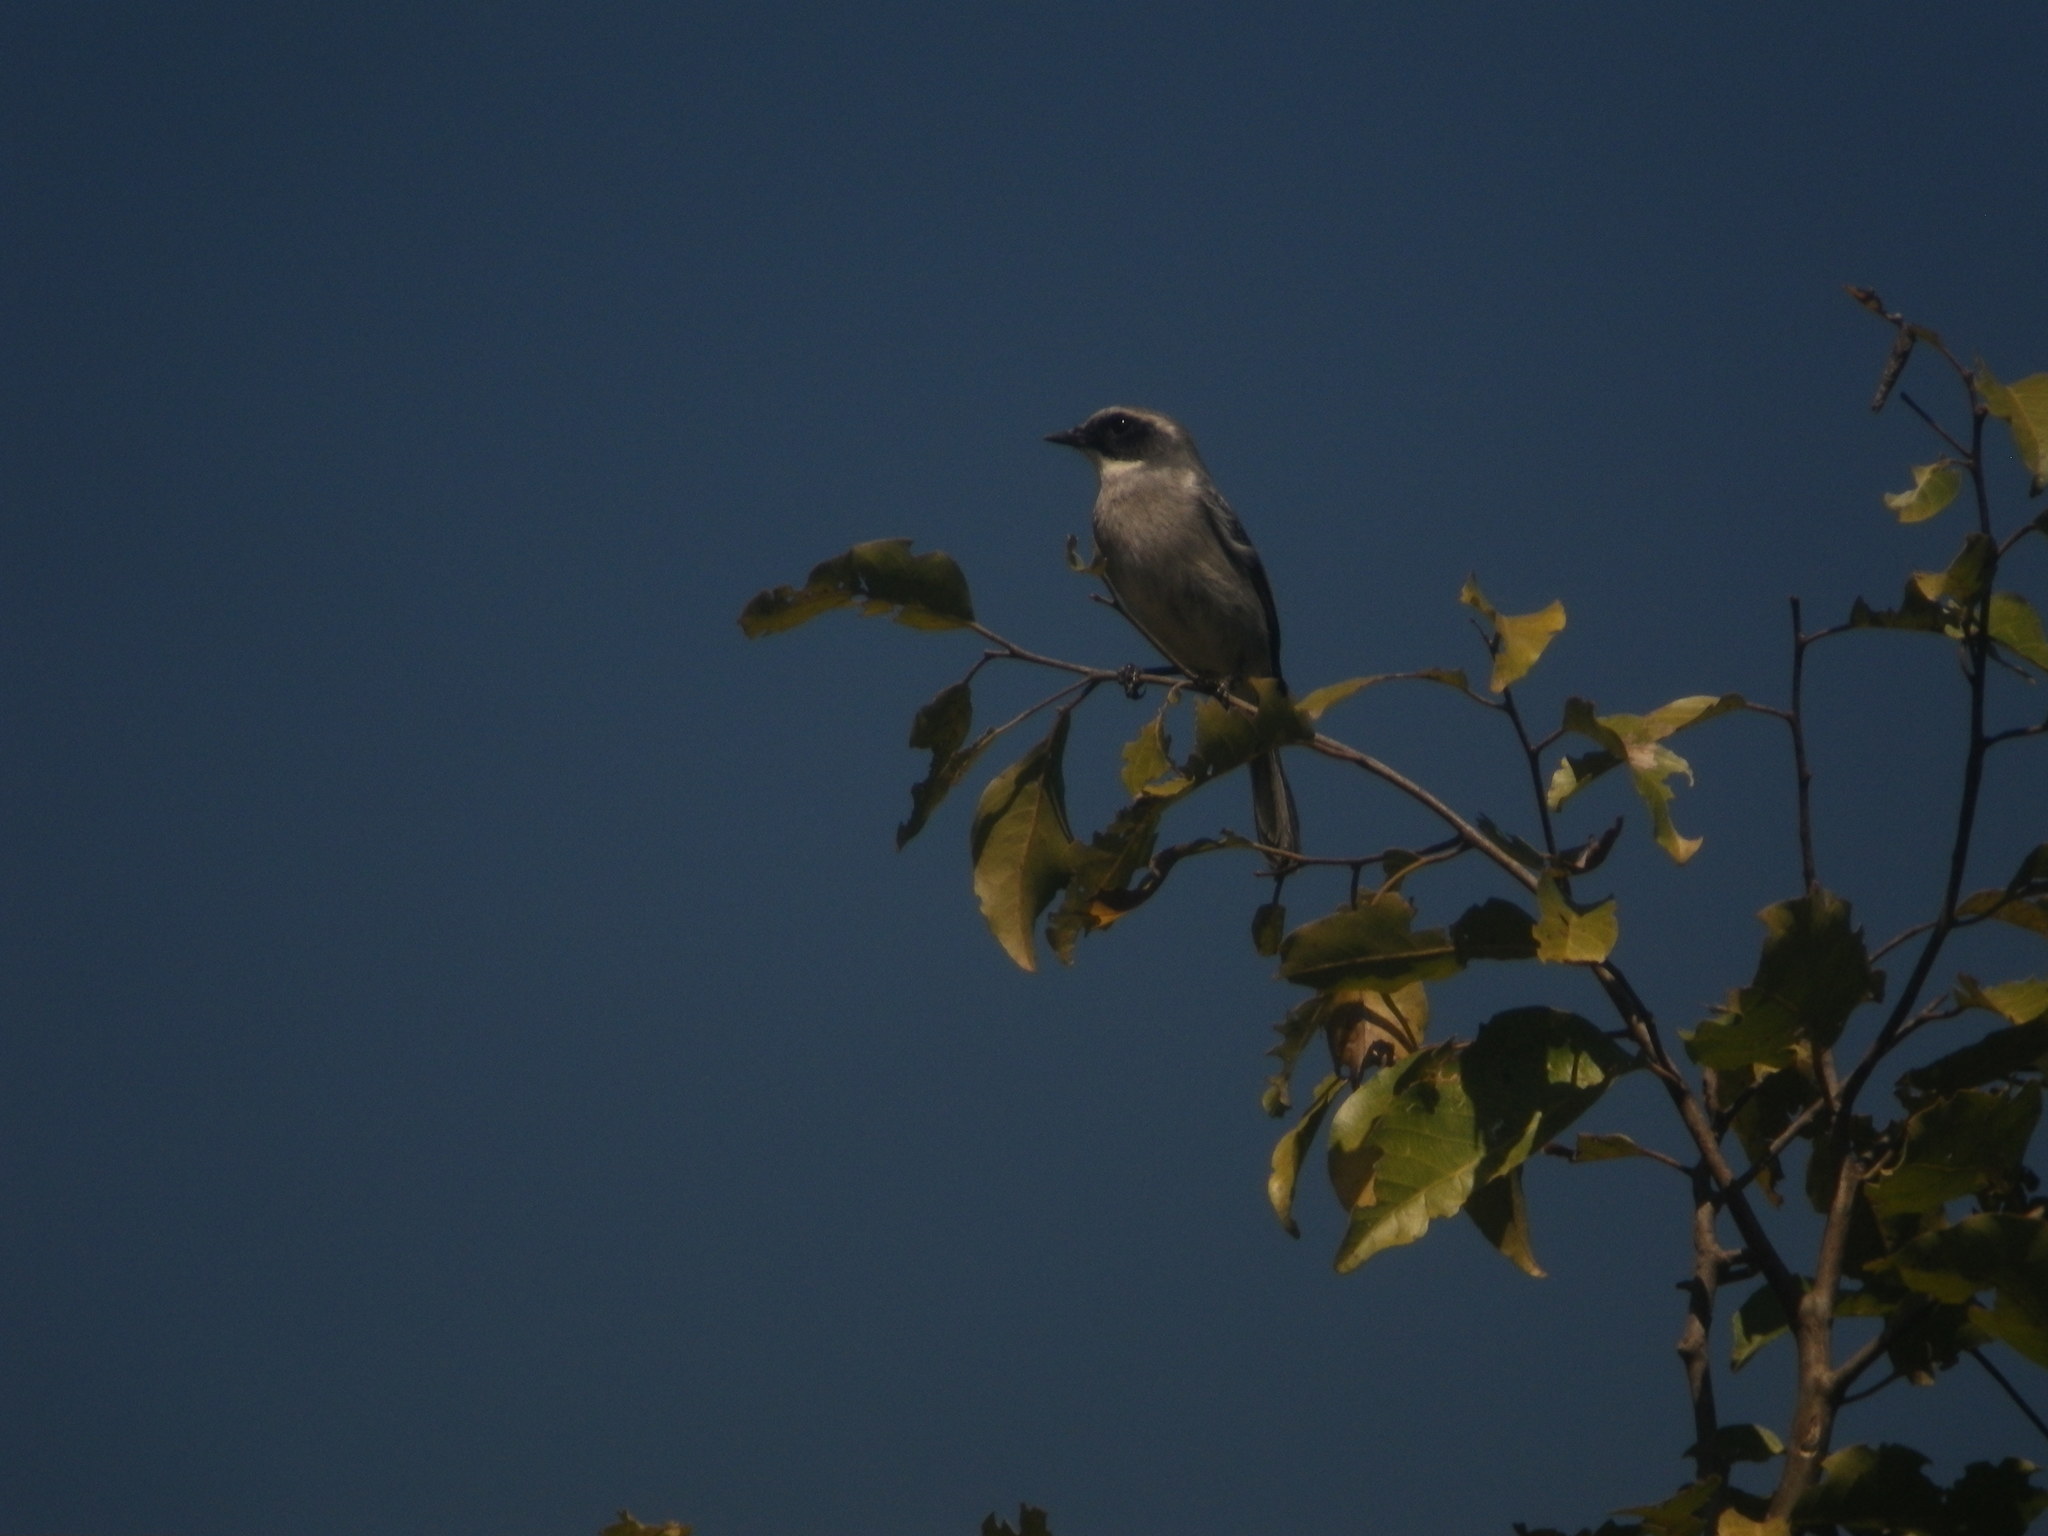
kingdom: Animalia
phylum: Chordata
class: Aves
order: Passeriformes
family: Muscicapidae
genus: Saxicola
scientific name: Saxicola ferreus
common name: Grey bush chat
